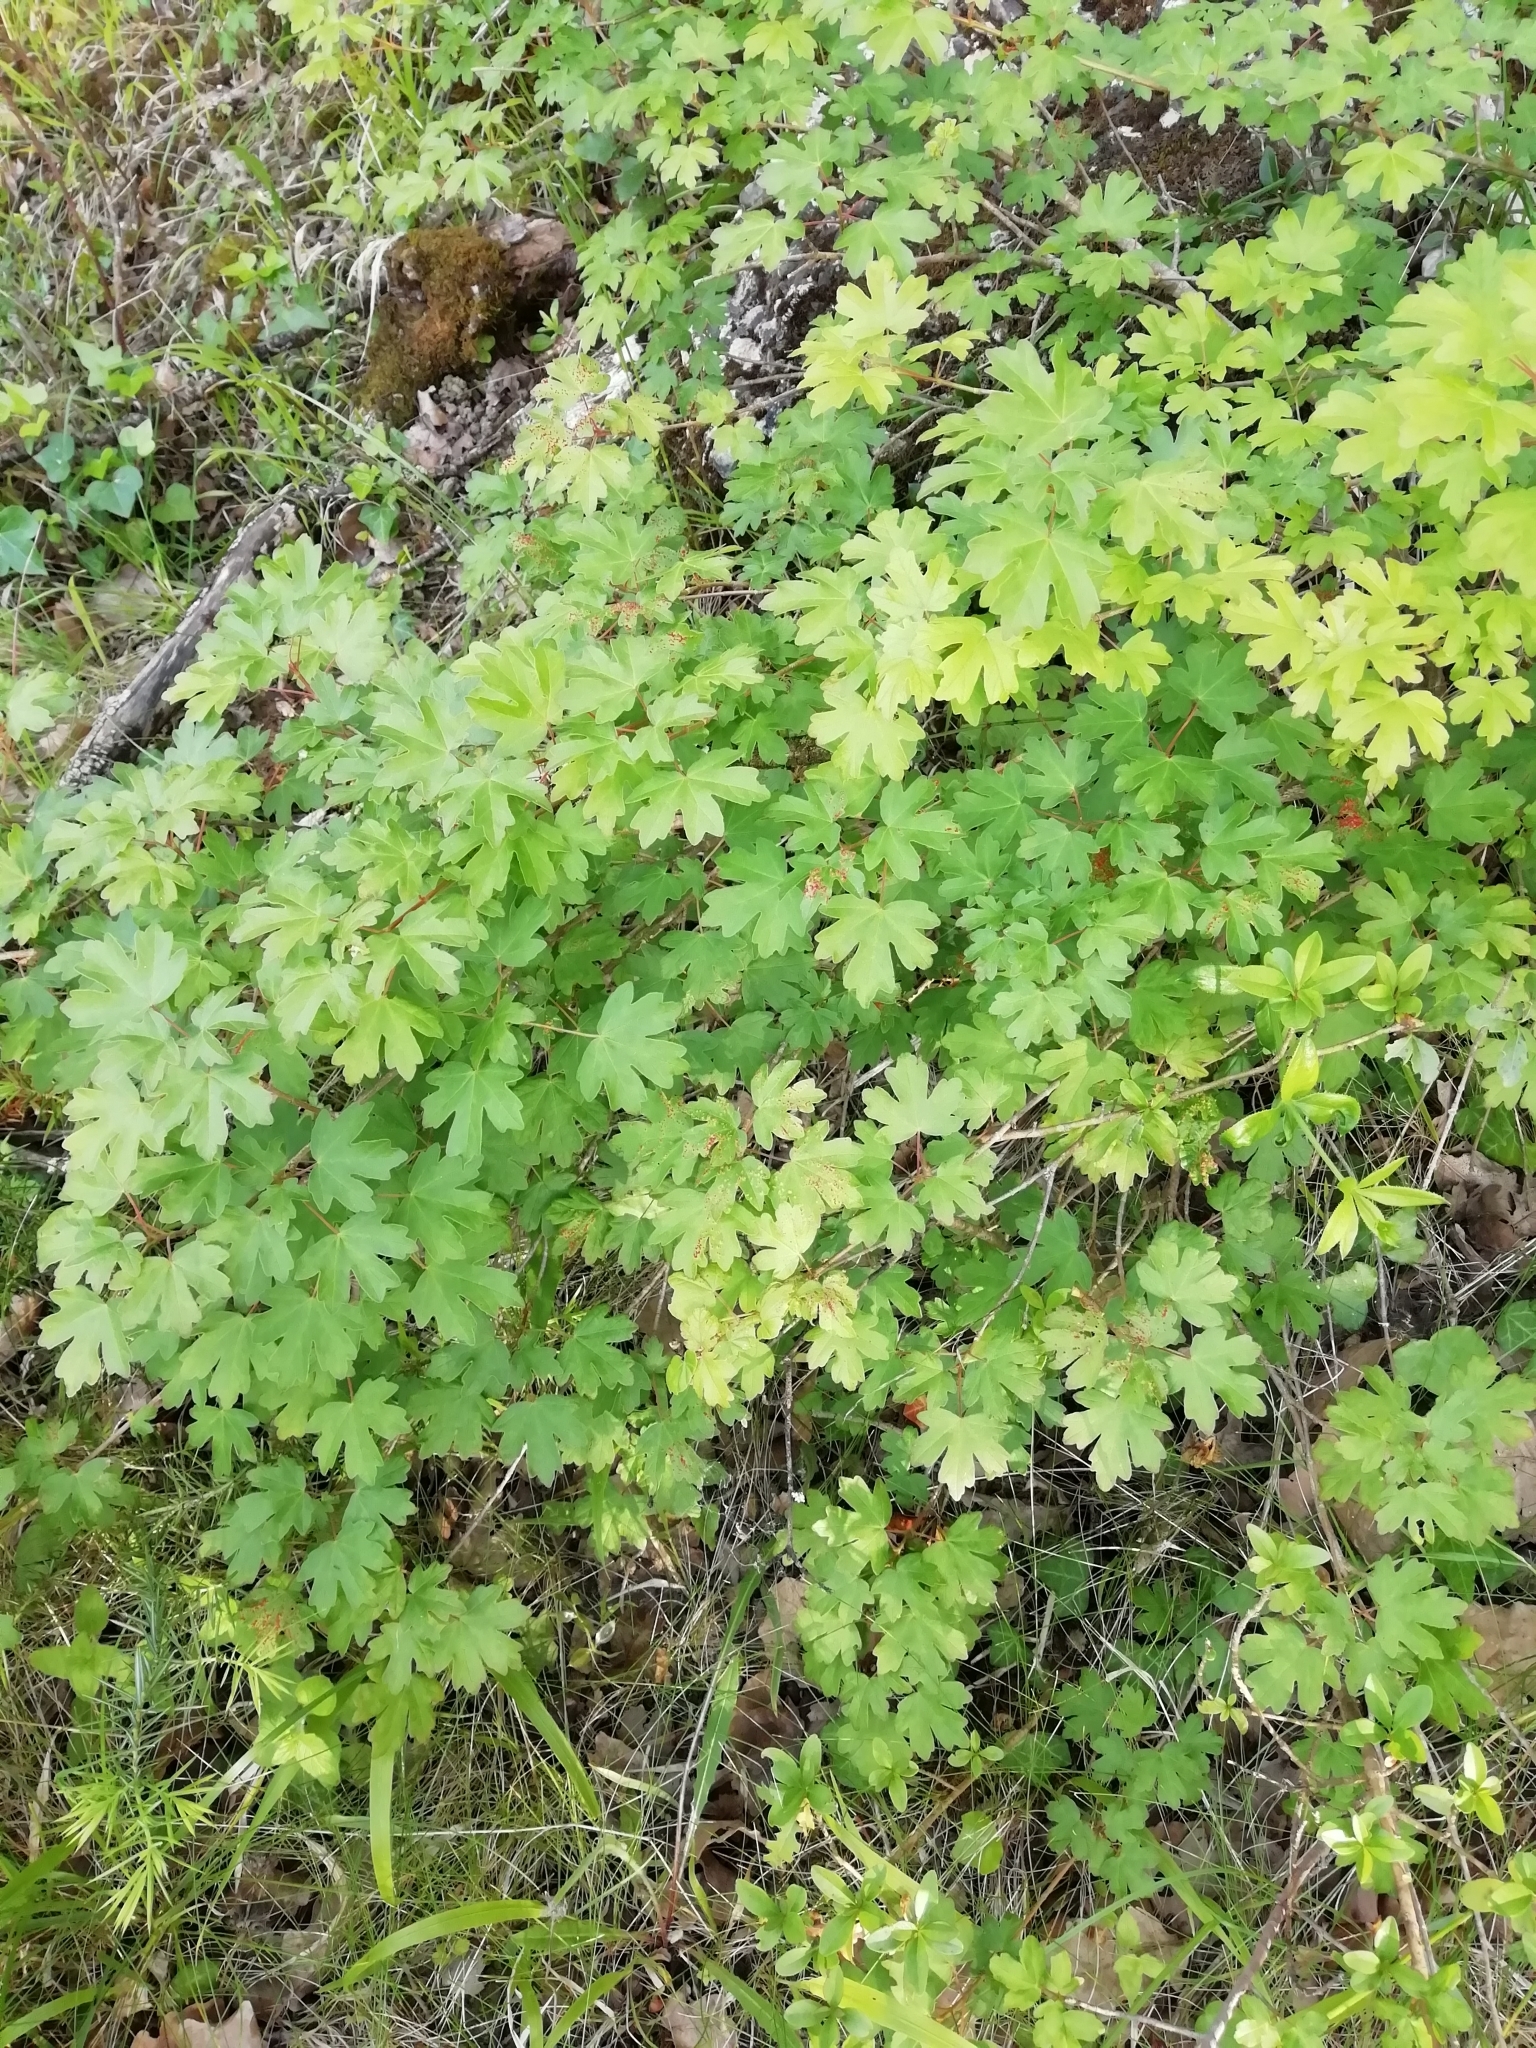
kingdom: Plantae
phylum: Tracheophyta
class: Magnoliopsida
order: Sapindales
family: Sapindaceae
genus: Acer
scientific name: Acer campestre
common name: Field maple
